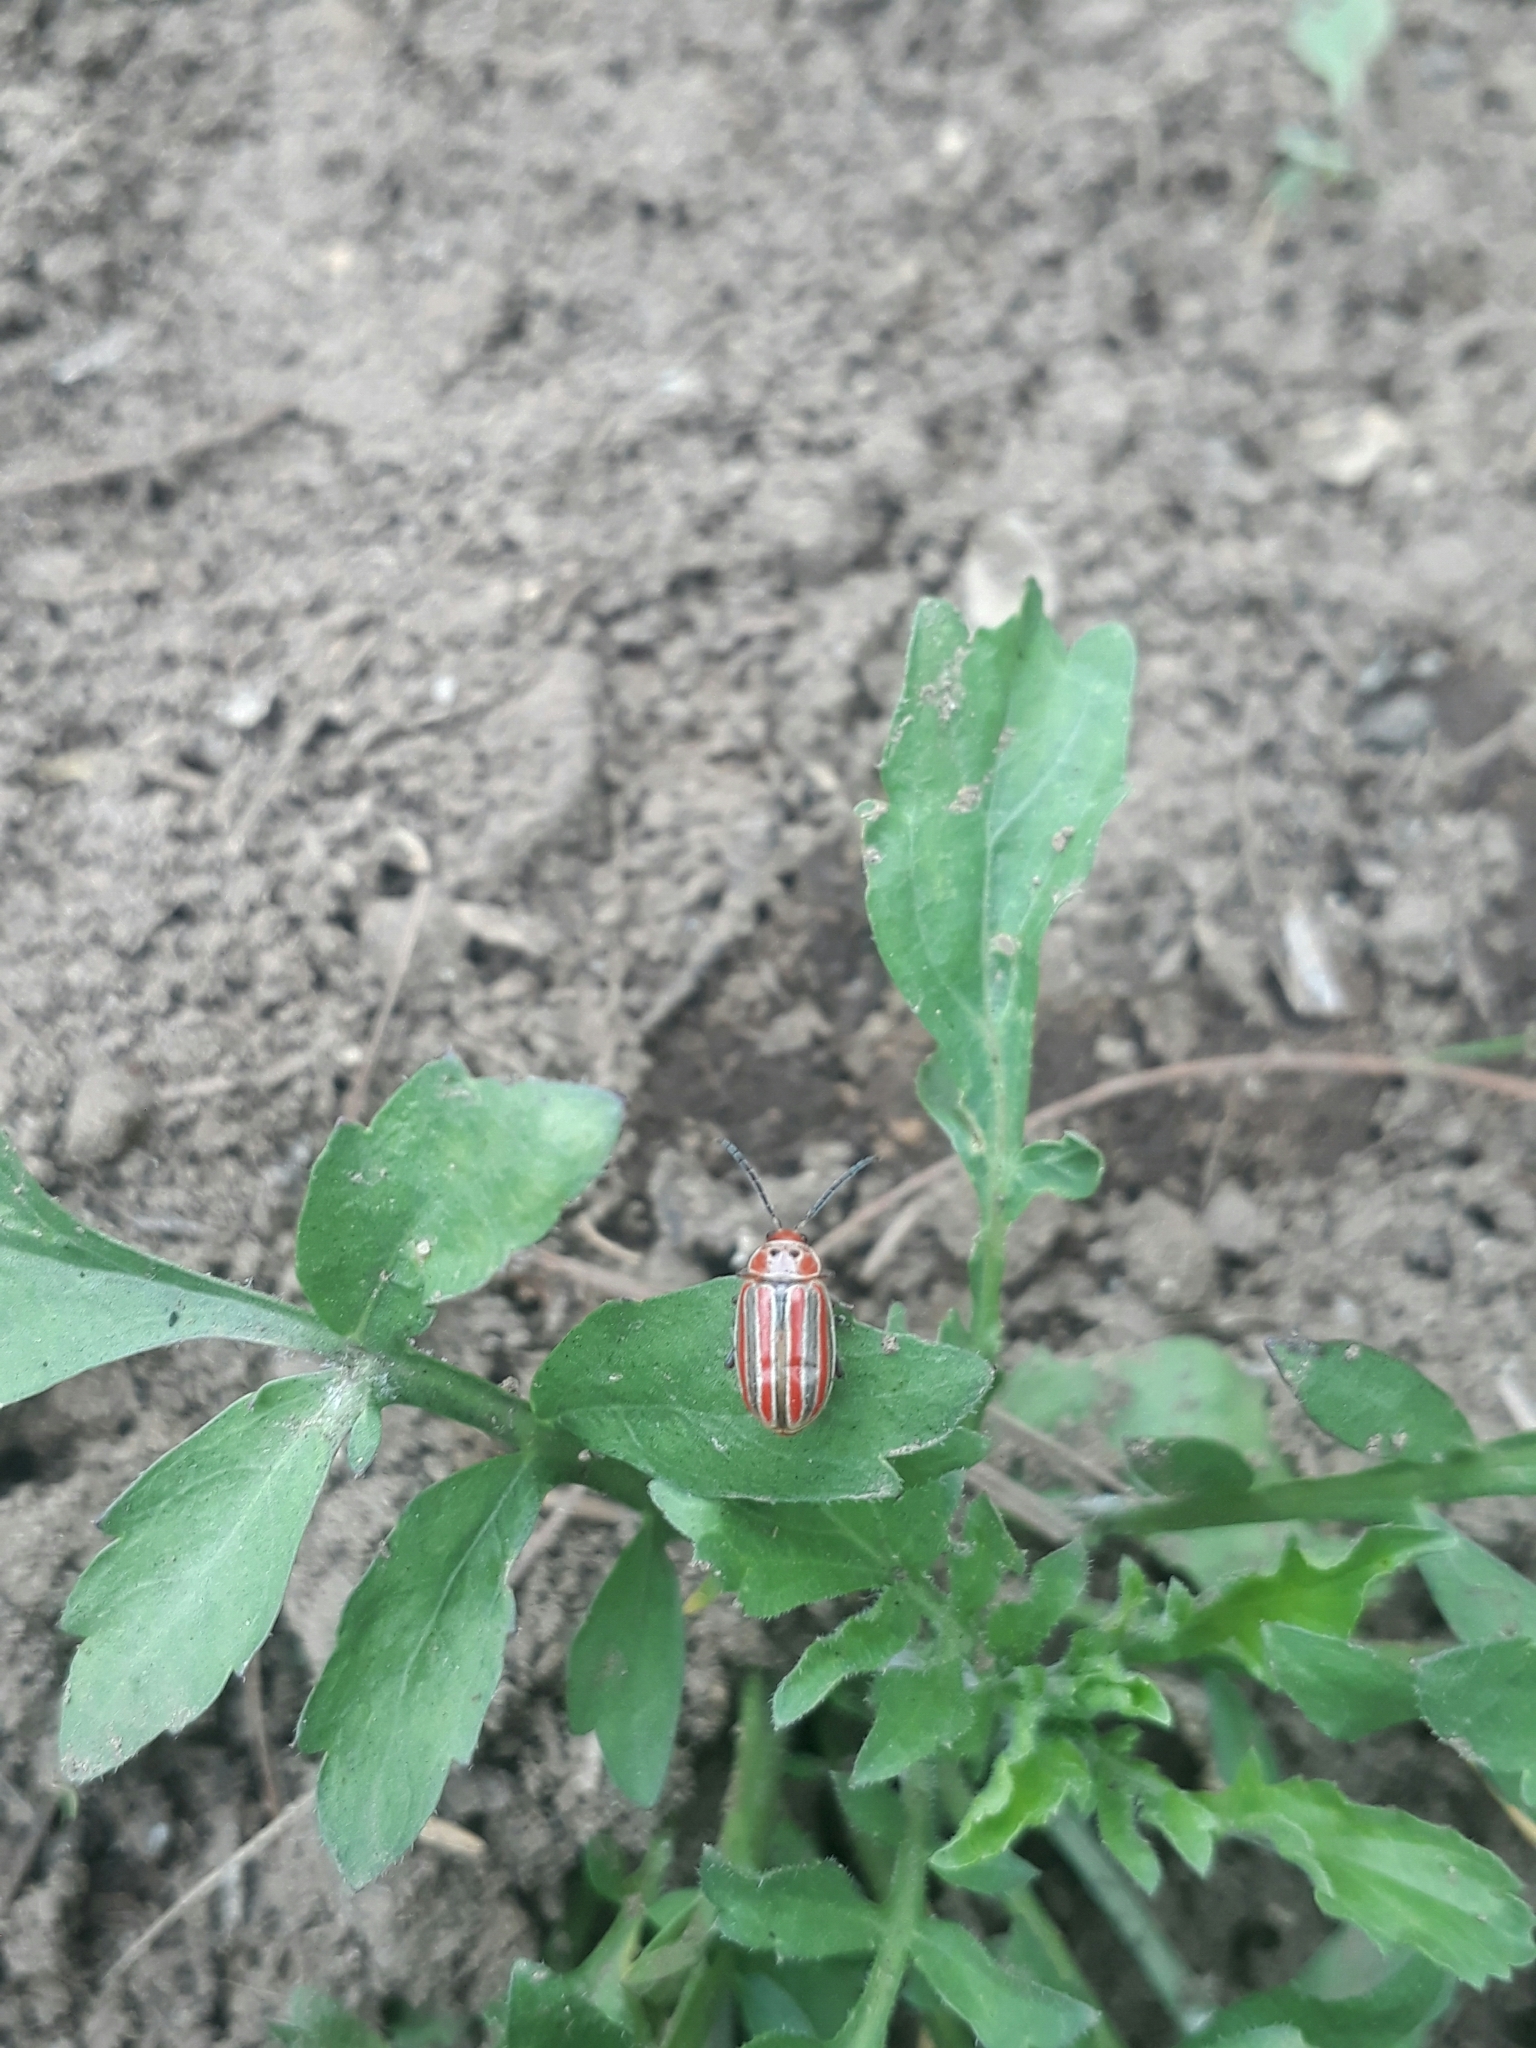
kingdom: Animalia
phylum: Arthropoda
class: Insecta
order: Coleoptera
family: Chrysomelidae
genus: Disonycha
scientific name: Disonycha figurata
